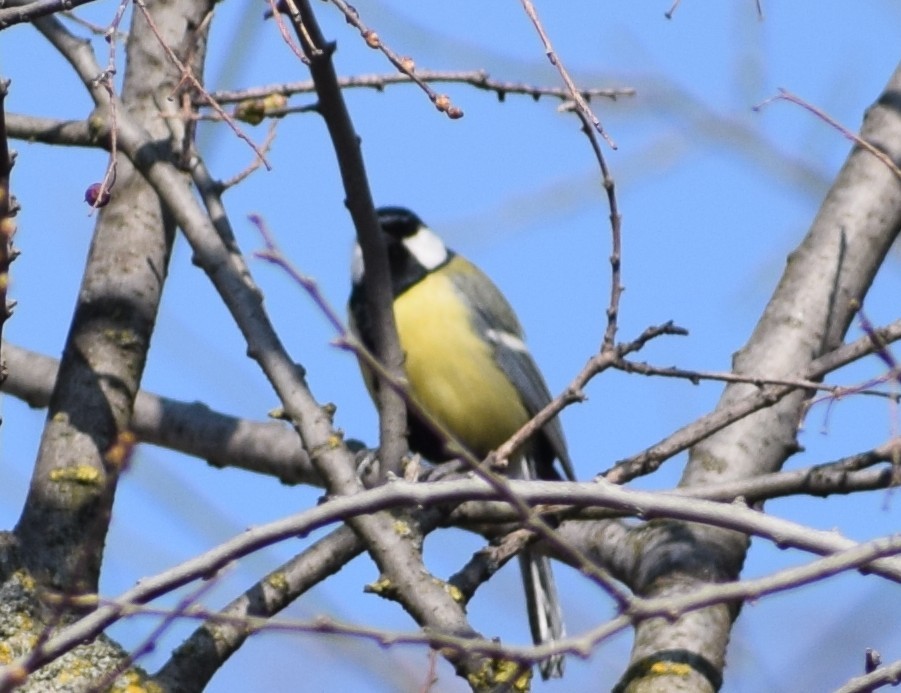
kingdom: Animalia
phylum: Chordata
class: Aves
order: Passeriformes
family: Paridae
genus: Parus
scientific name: Parus major
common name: Great tit
